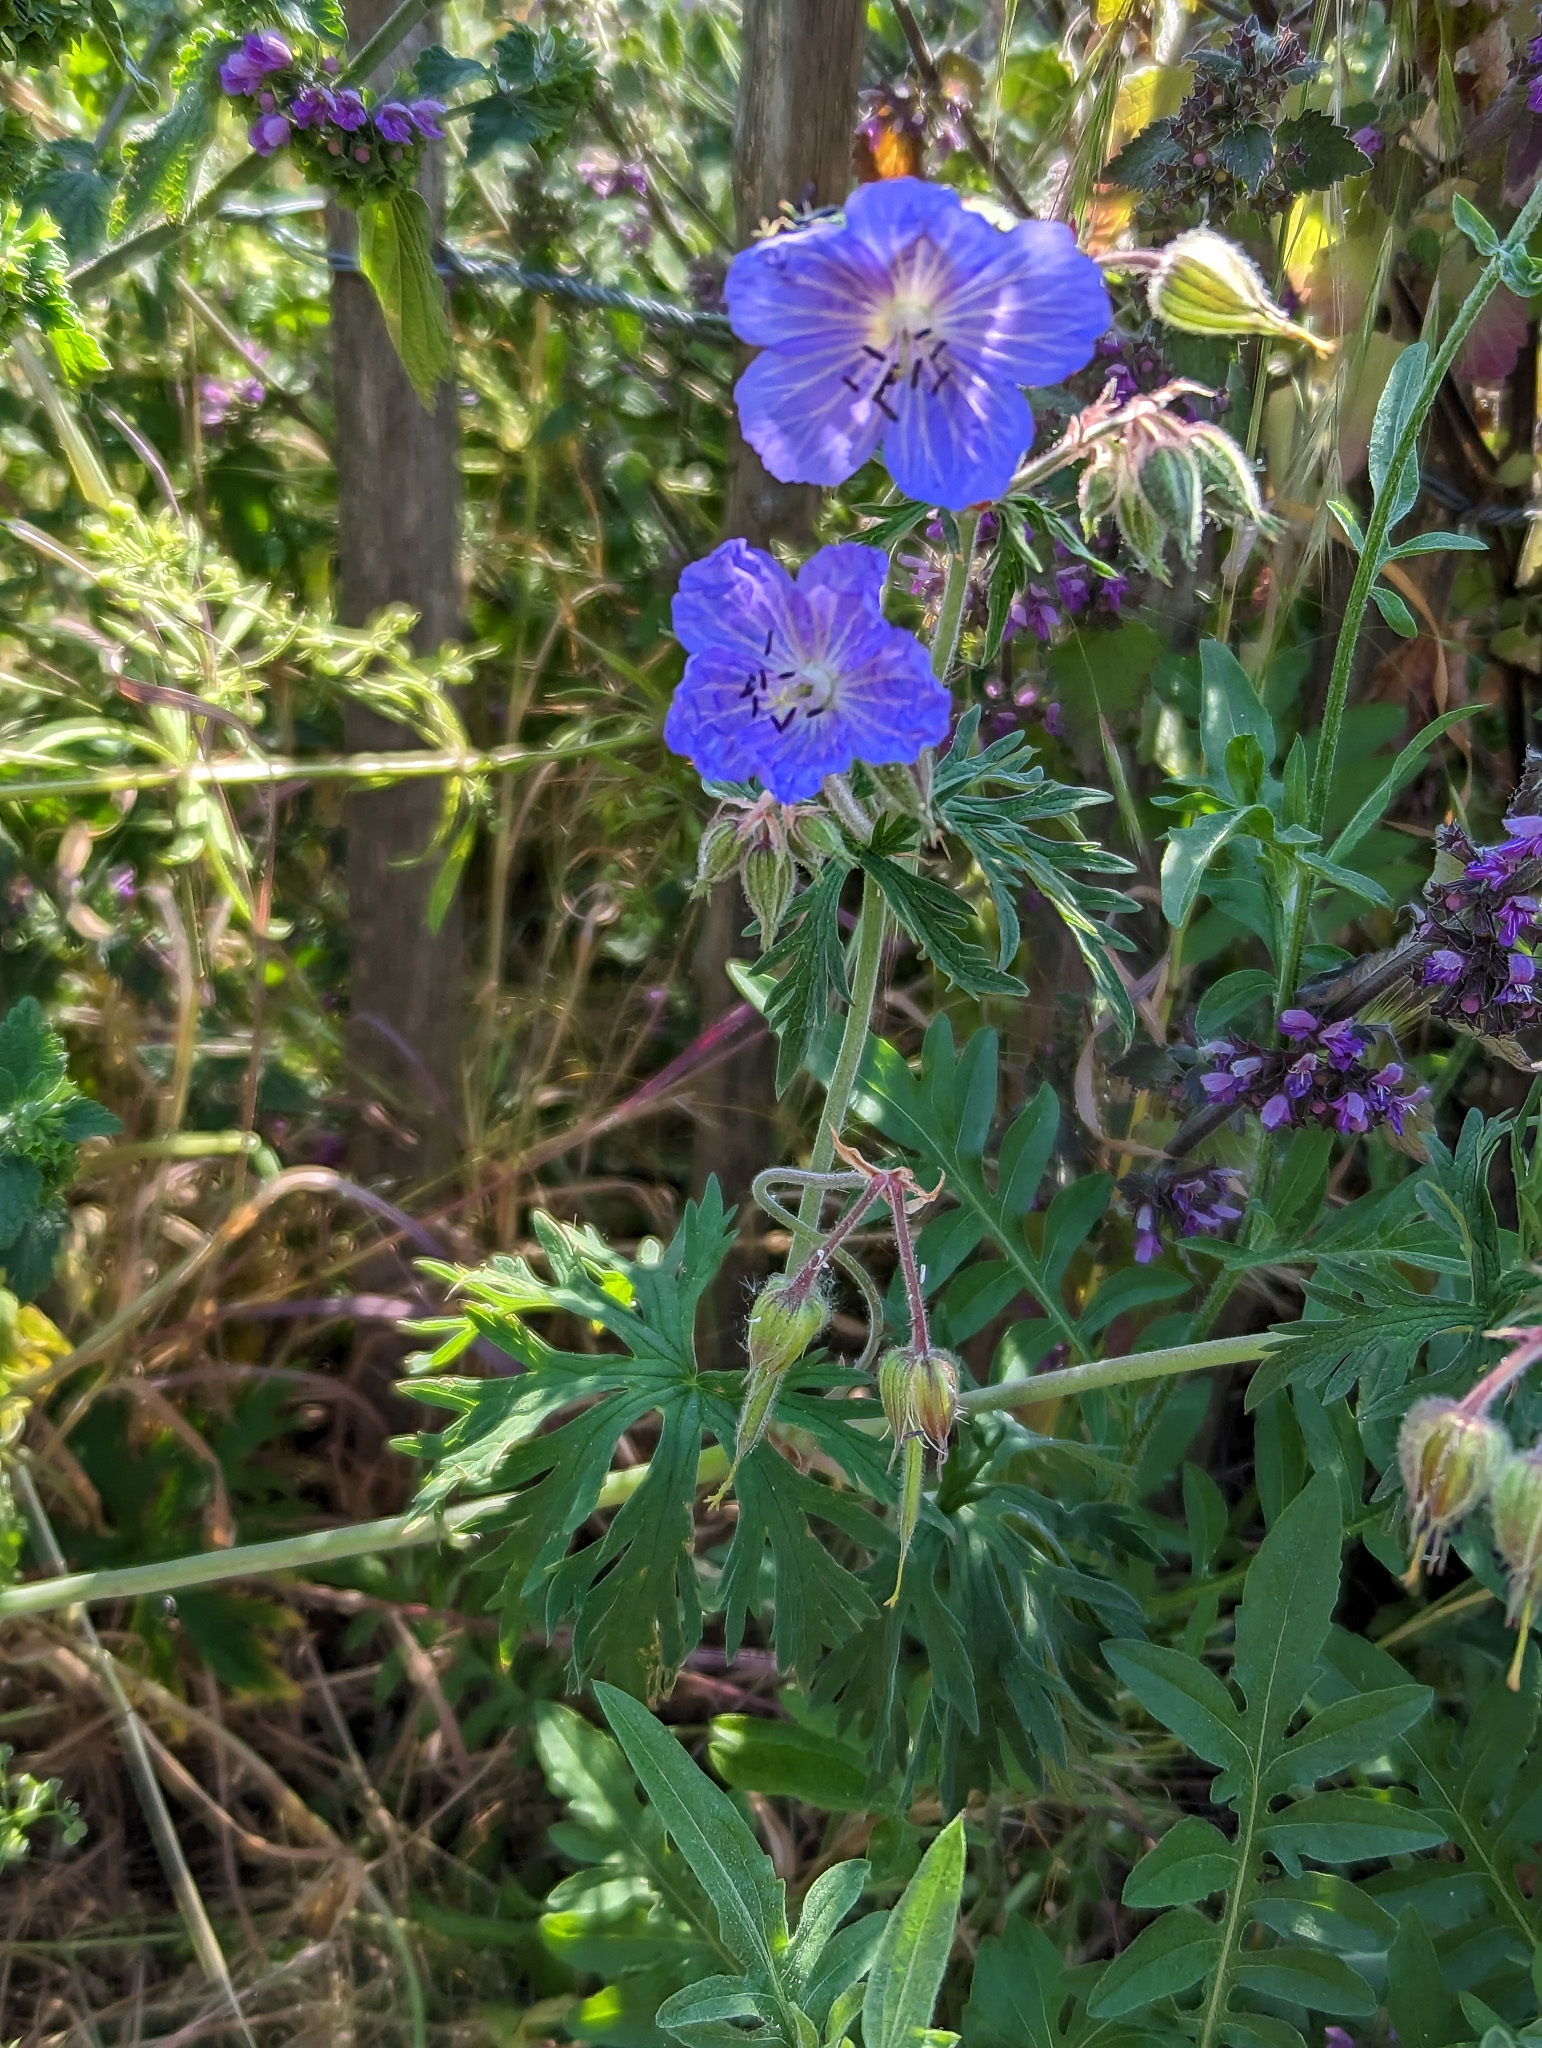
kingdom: Plantae
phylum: Tracheophyta
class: Magnoliopsida
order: Geraniales
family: Geraniaceae
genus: Geranium
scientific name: Geranium pratense
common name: Meadow crane's-bill
